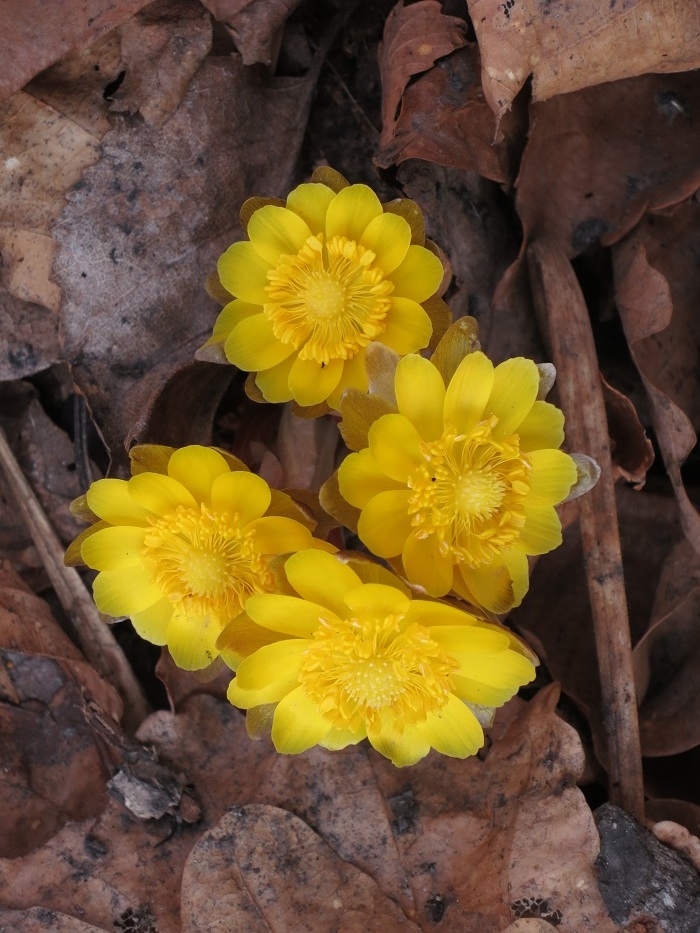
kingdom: Plantae
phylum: Tracheophyta
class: Magnoliopsida
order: Ranunculales
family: Ranunculaceae
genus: Adonis
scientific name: Adonis amurensis
